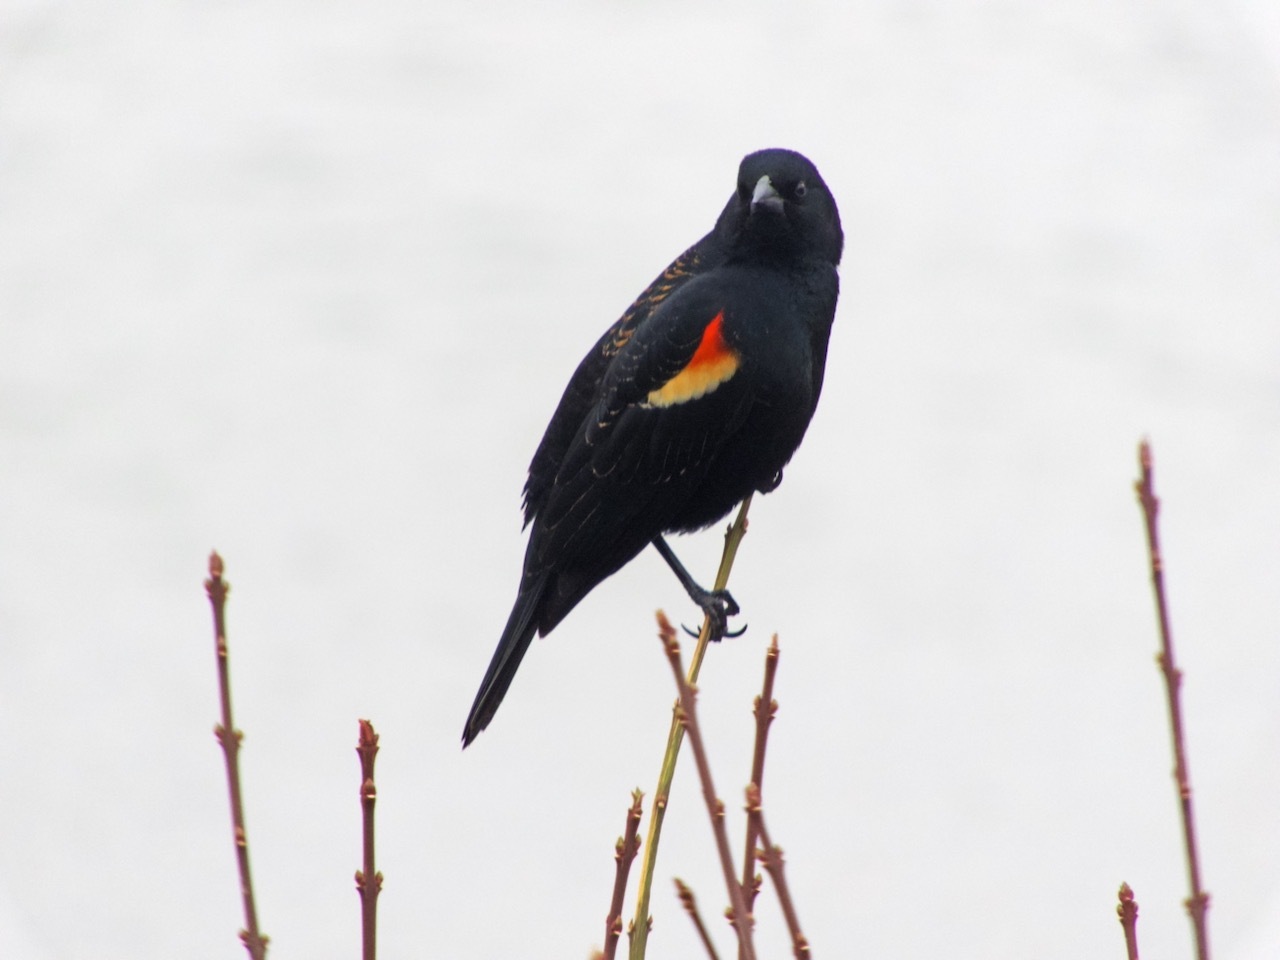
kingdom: Animalia
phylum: Chordata
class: Aves
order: Passeriformes
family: Icteridae
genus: Agelaius
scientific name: Agelaius phoeniceus
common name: Red-winged blackbird
